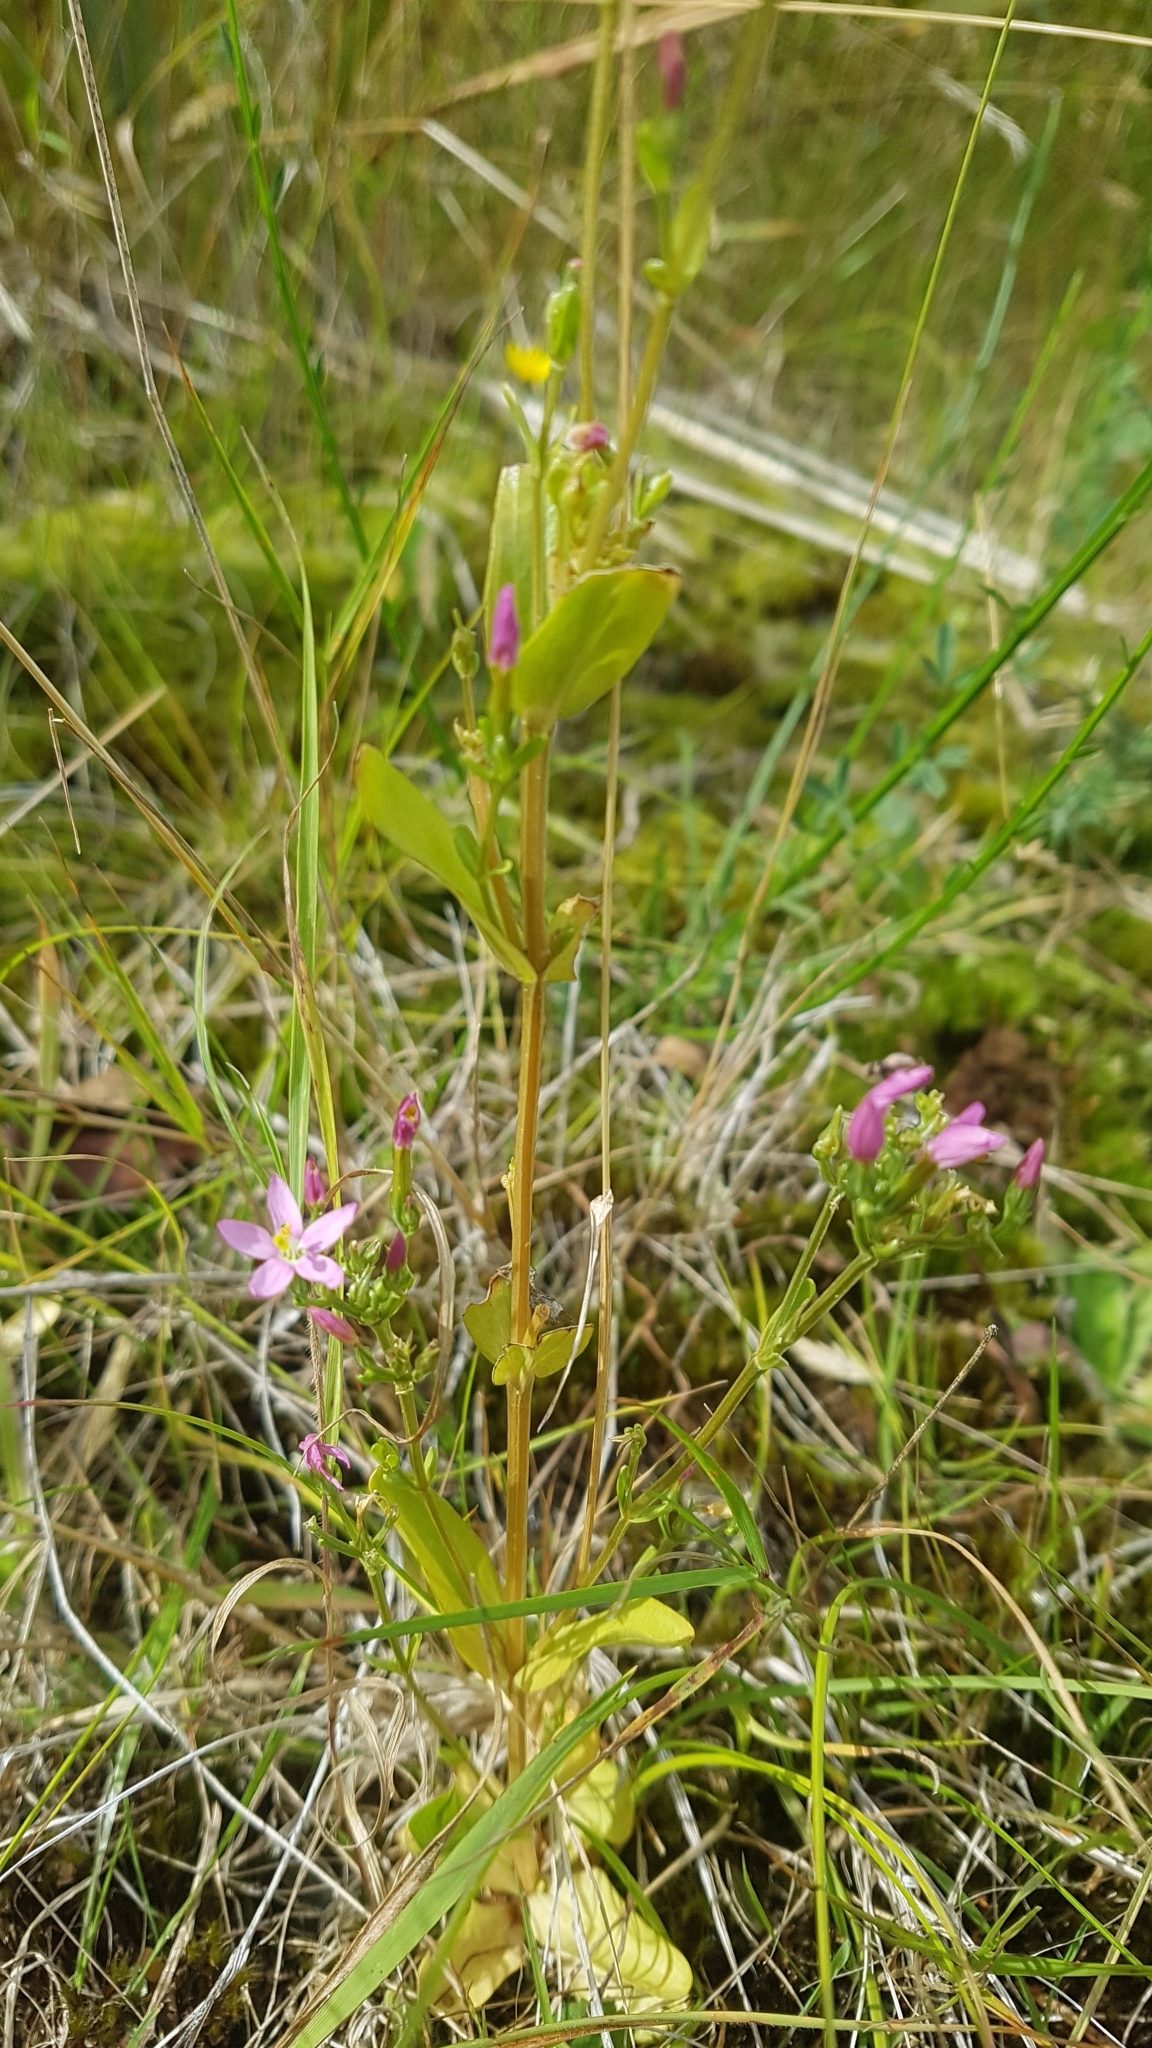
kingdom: Plantae
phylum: Tracheophyta
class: Magnoliopsida
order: Gentianales
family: Gentianaceae
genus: Centaurium
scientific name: Centaurium erythraea
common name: Common centaury
